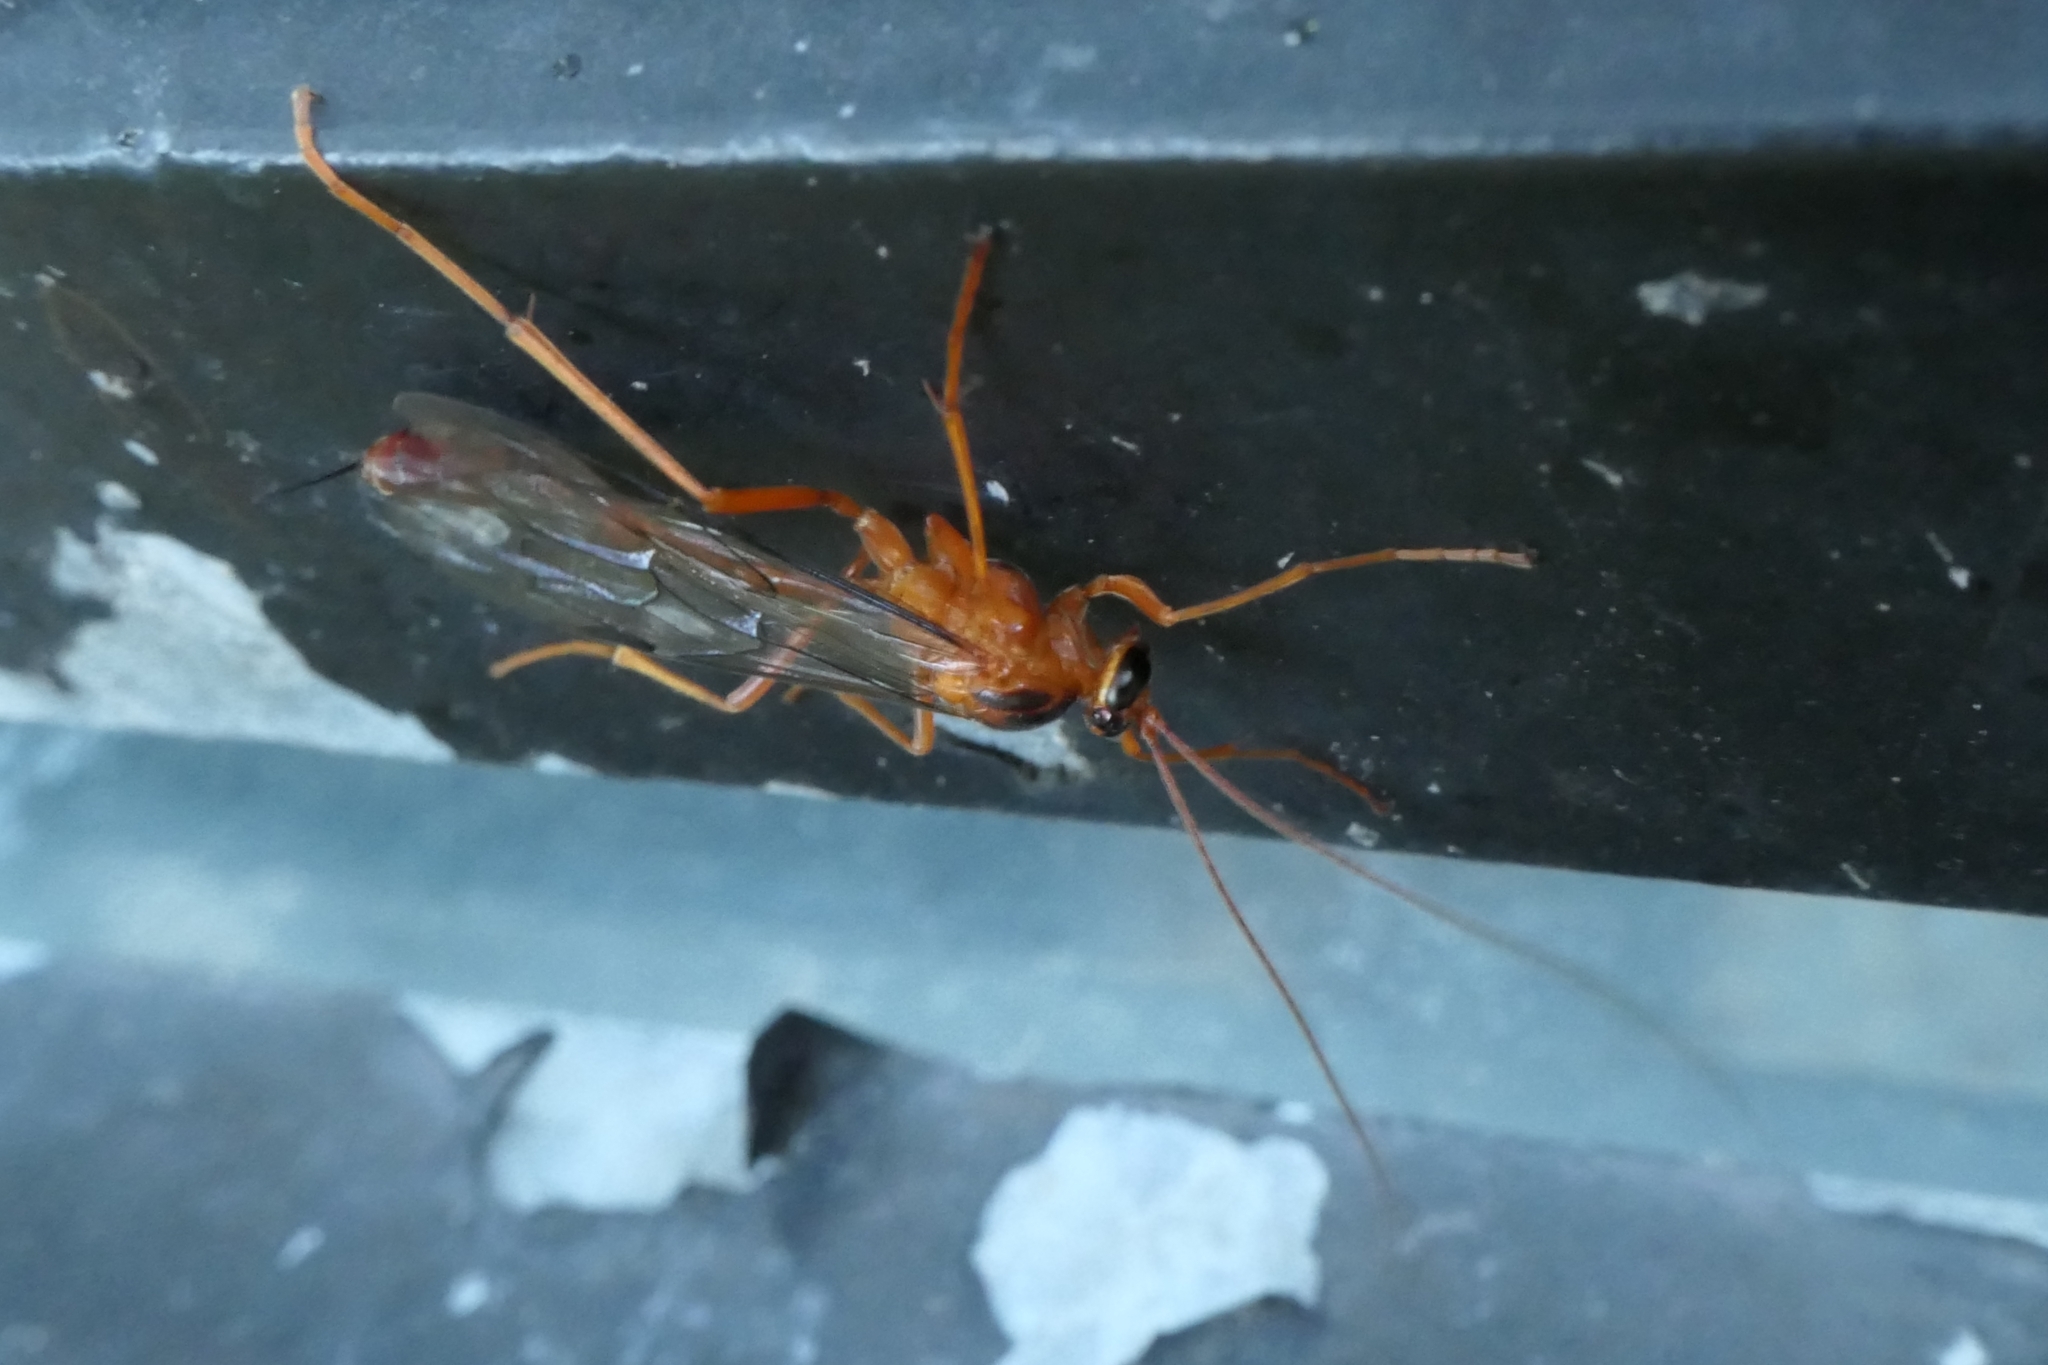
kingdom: Animalia
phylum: Arthropoda
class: Insecta
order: Hymenoptera
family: Ichneumonidae
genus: Netelia
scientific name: Netelia ephippiata
